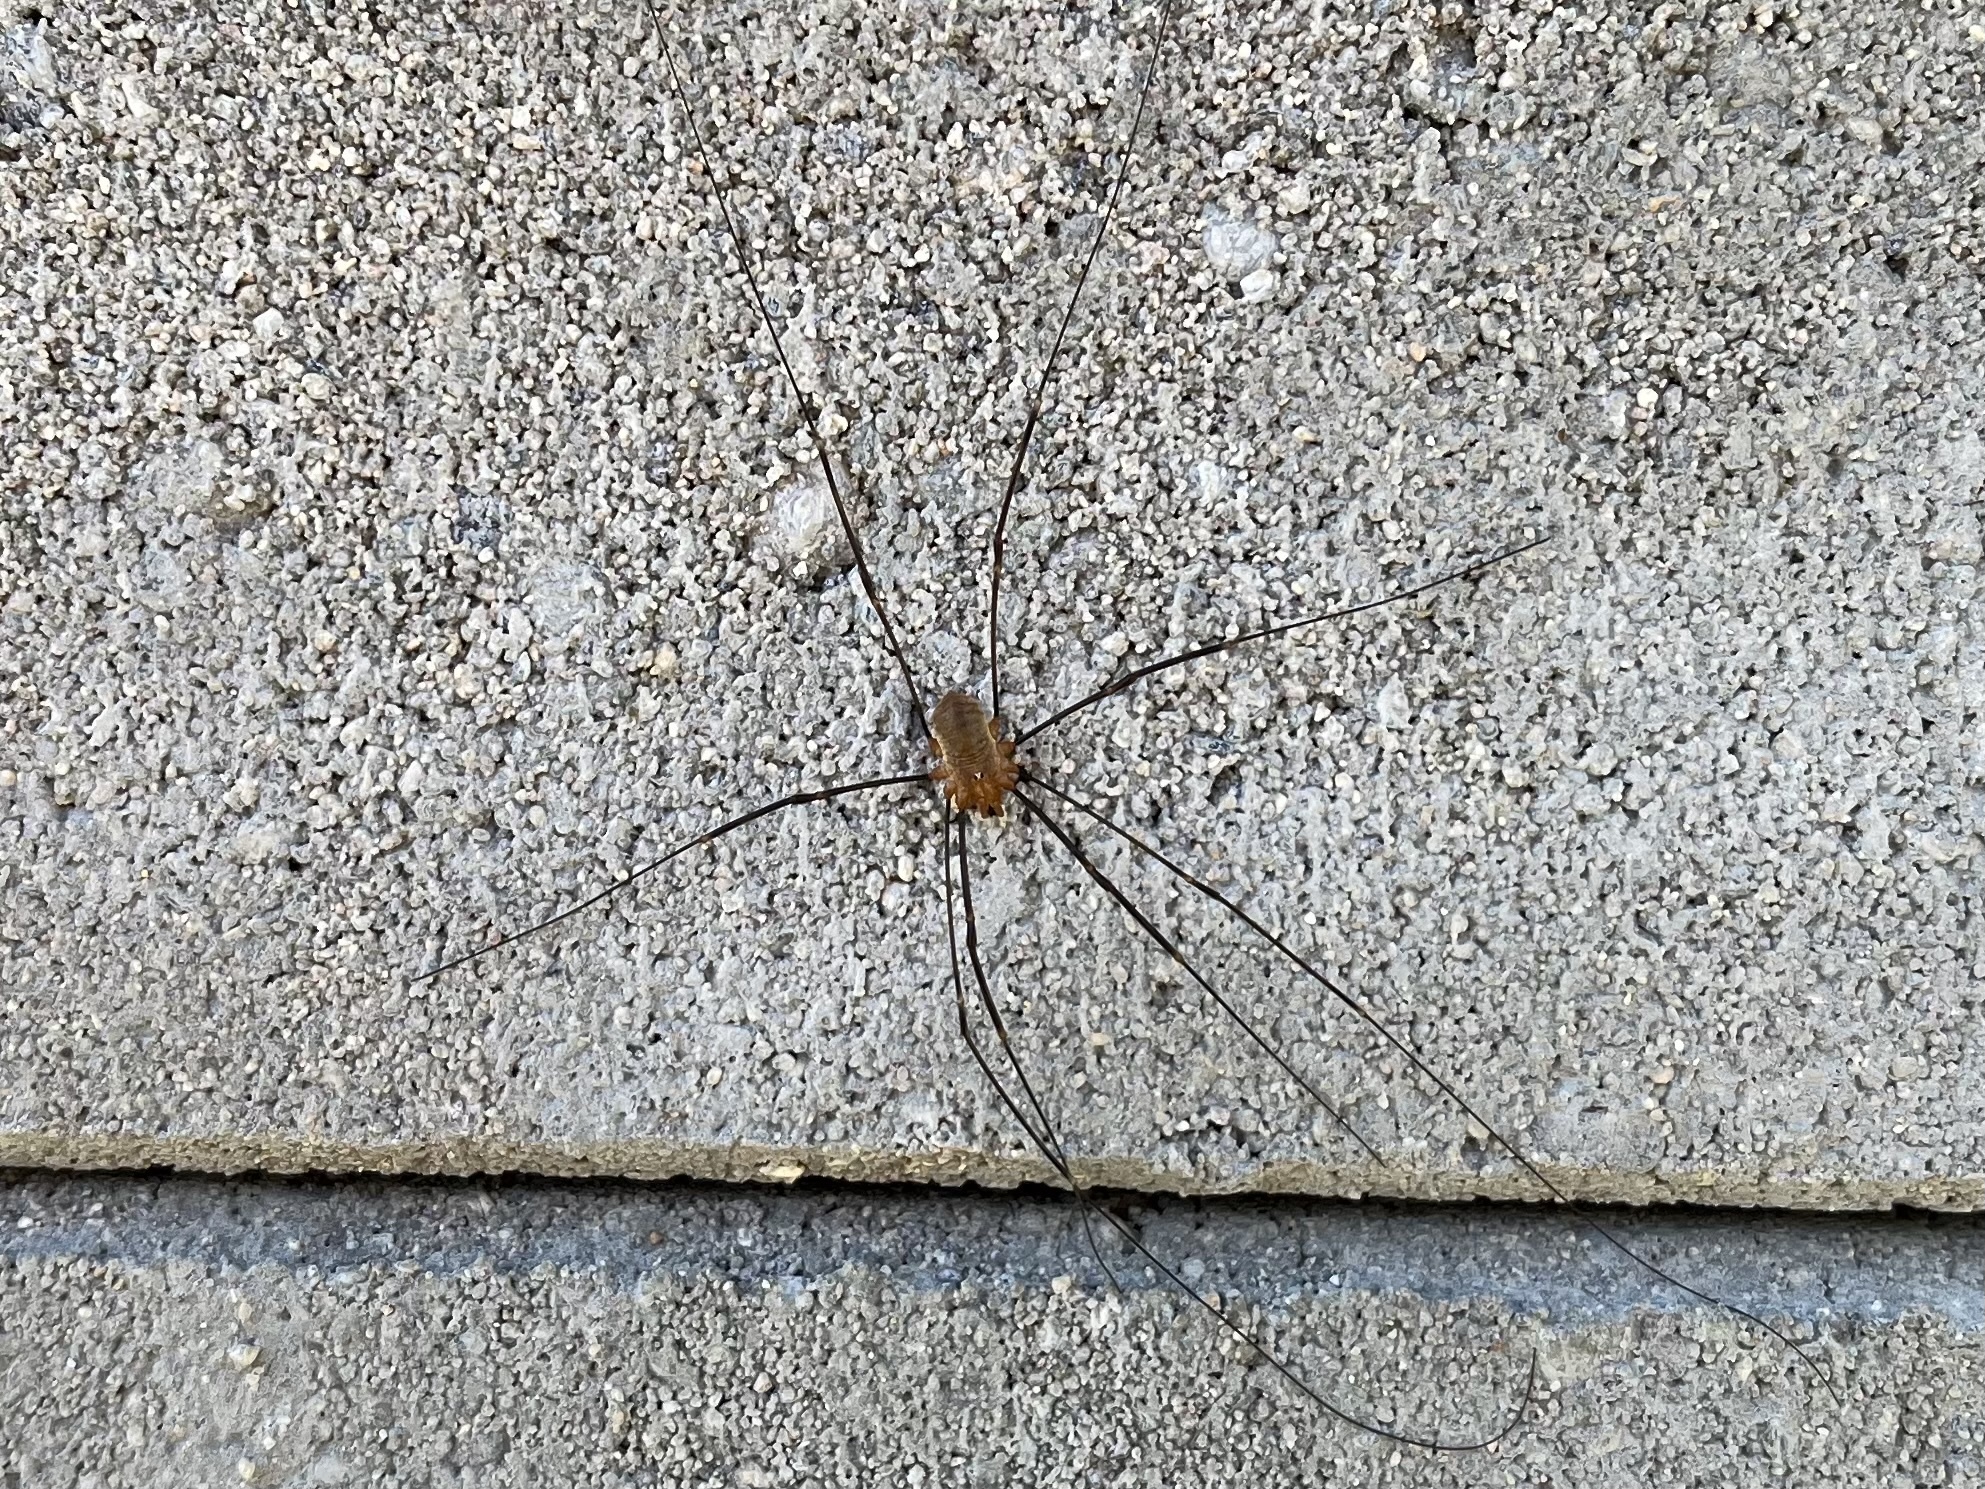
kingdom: Animalia
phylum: Arthropoda
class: Arachnida
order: Opiliones
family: Phalangiidae
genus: Opilio
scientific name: Opilio canestrinii
